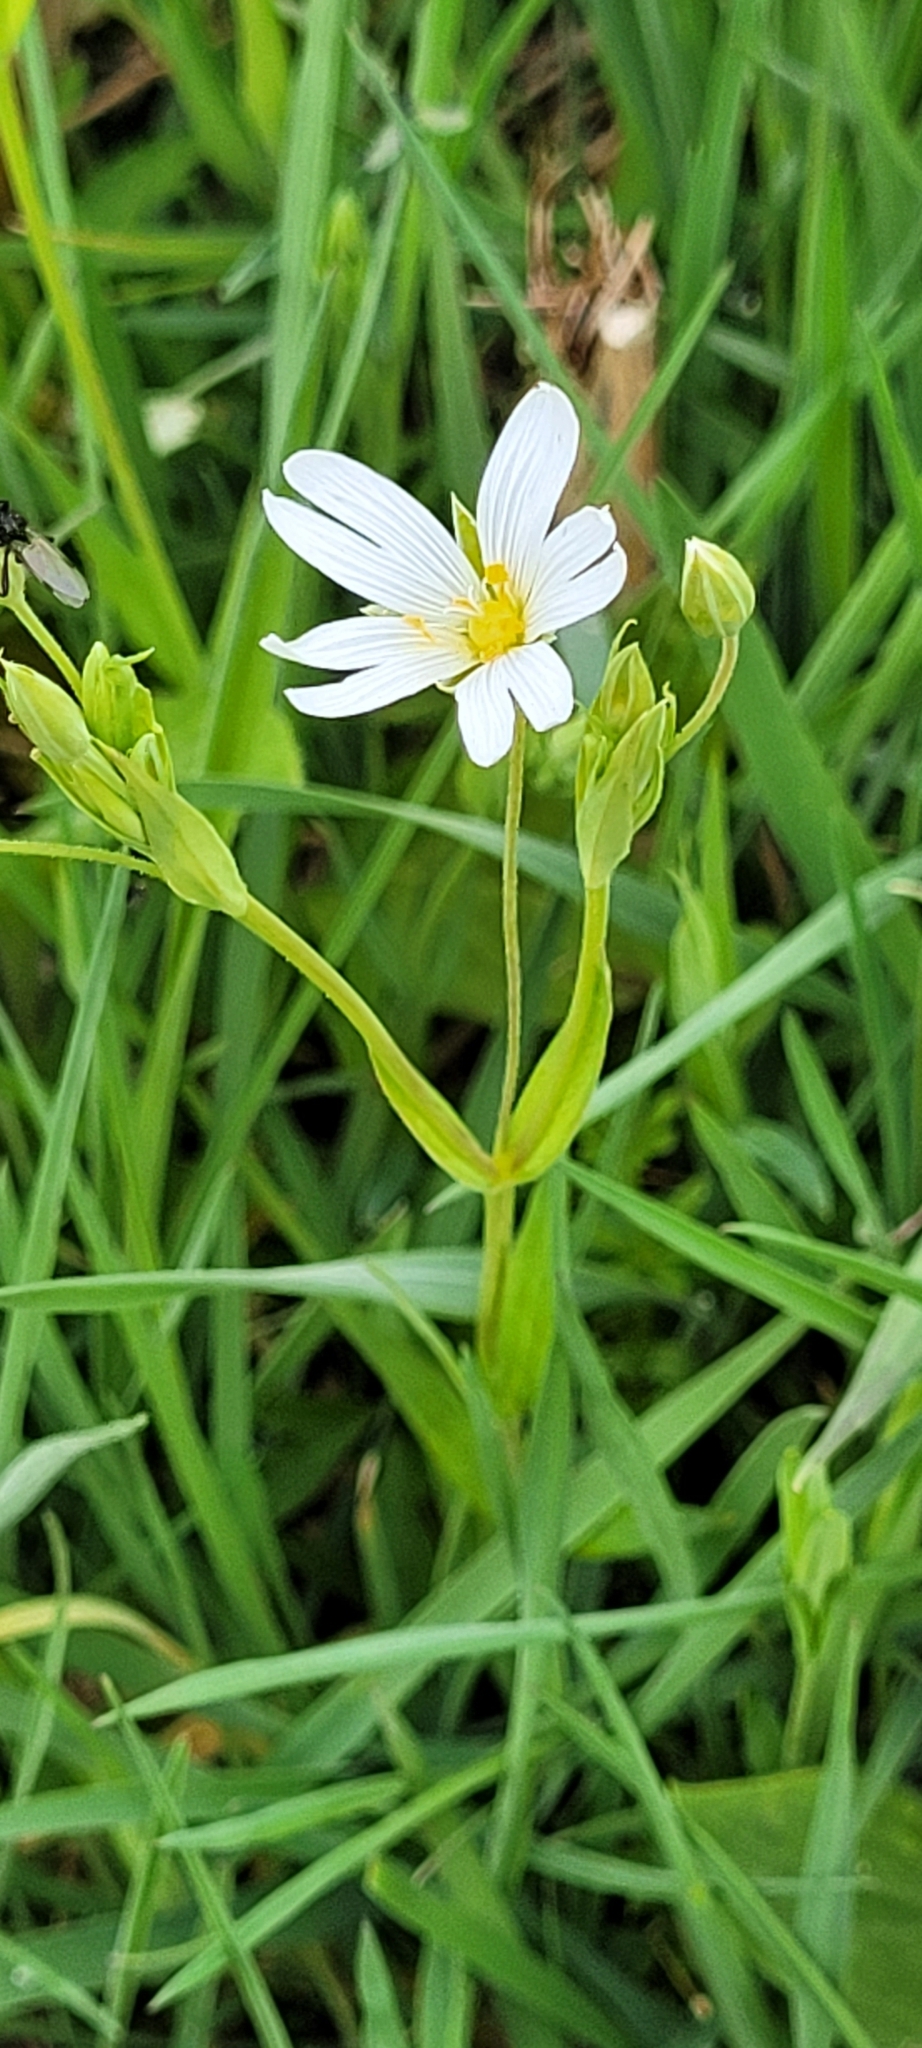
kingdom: Plantae
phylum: Tracheophyta
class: Magnoliopsida
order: Caryophyllales
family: Caryophyllaceae
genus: Rabelera
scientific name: Rabelera holostea
